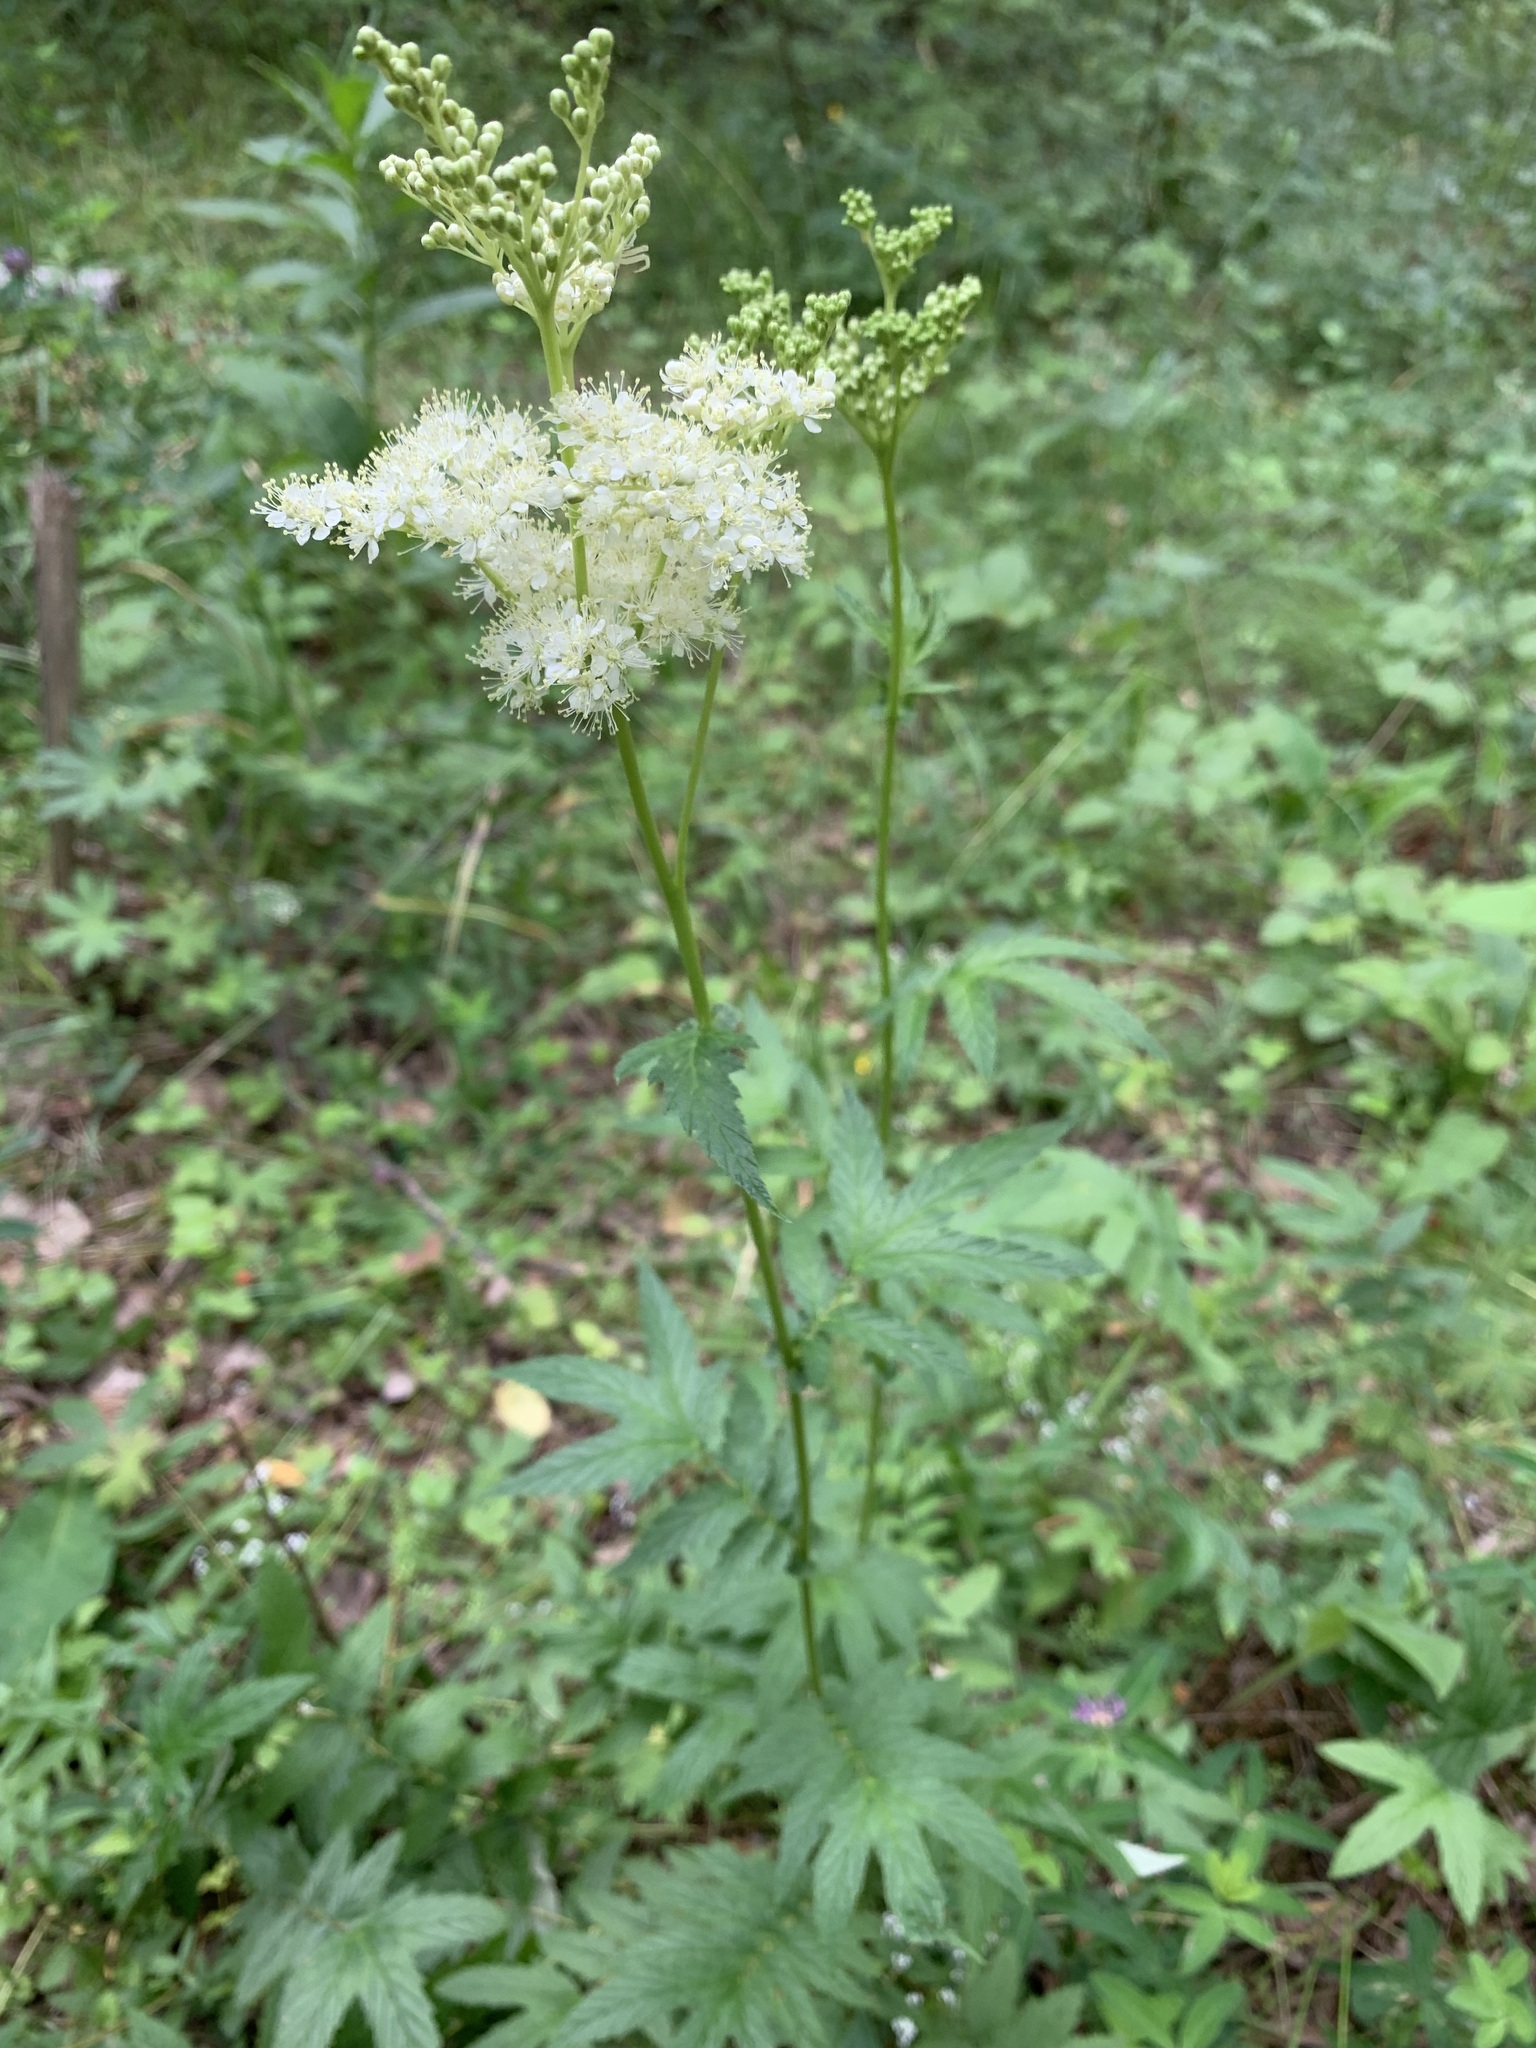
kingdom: Plantae
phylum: Tracheophyta
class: Magnoliopsida
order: Rosales
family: Rosaceae
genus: Filipendula
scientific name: Filipendula ulmaria
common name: Meadowsweet
